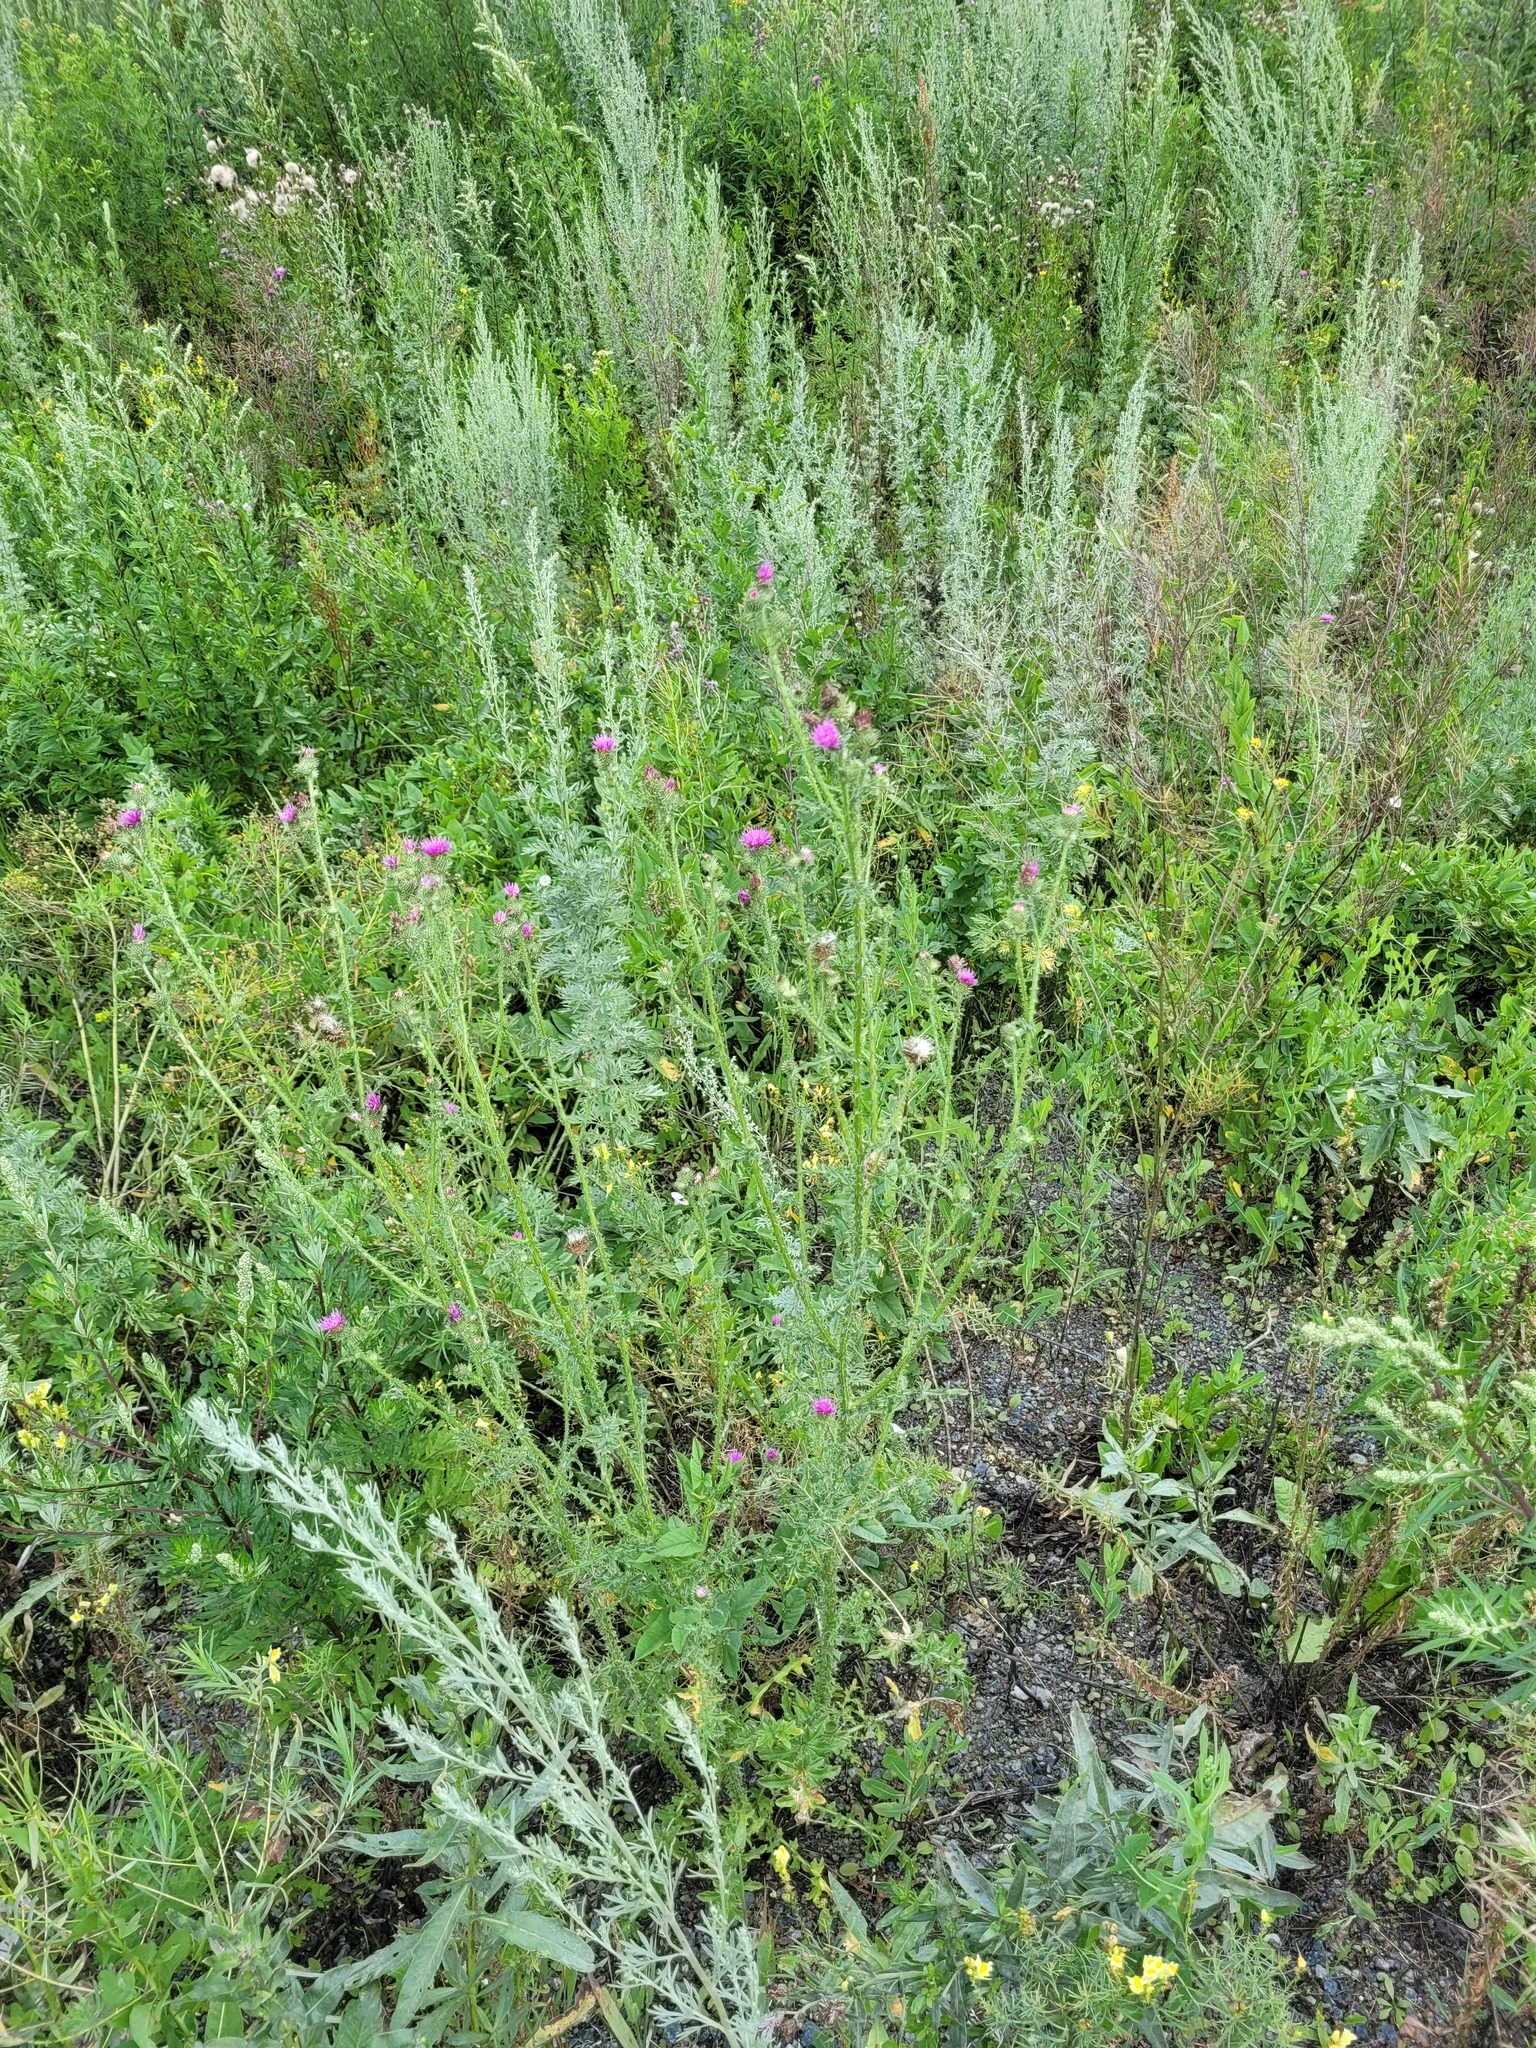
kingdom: Plantae
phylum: Tracheophyta
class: Magnoliopsida
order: Asterales
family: Asteraceae
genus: Carduus
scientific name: Carduus acanthoides
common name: Plumeless thistle
